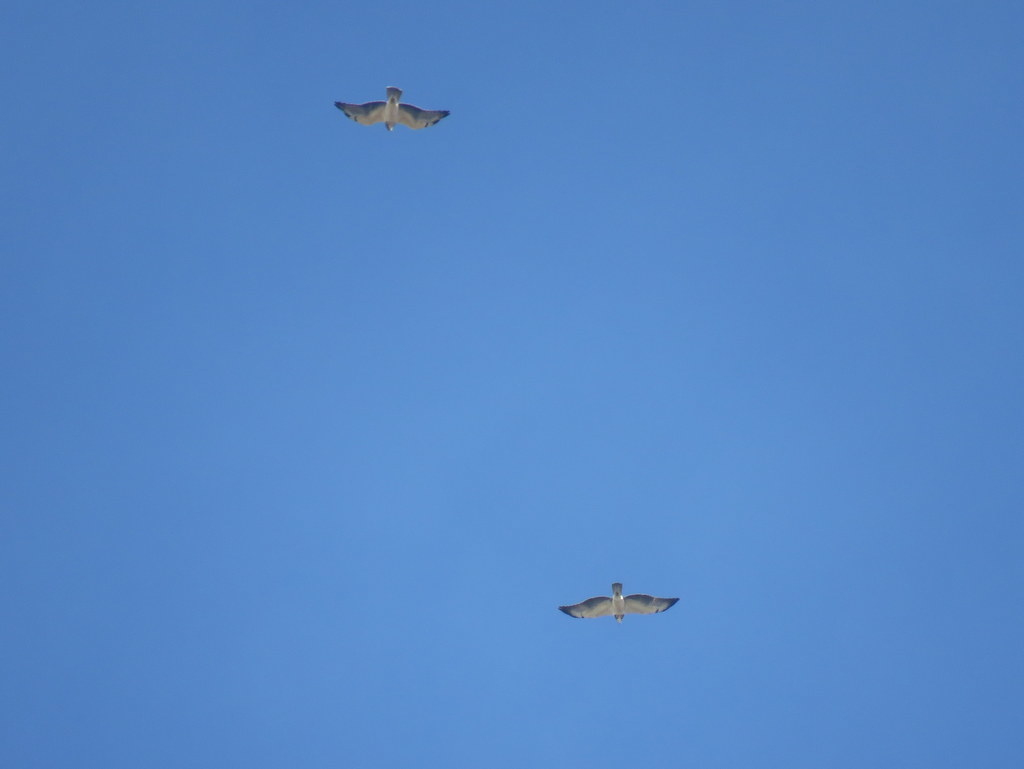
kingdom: Animalia
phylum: Chordata
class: Aves
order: Accipitriformes
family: Accipitridae
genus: Buteo
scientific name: Buteo swainsoni
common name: Swainson's hawk
